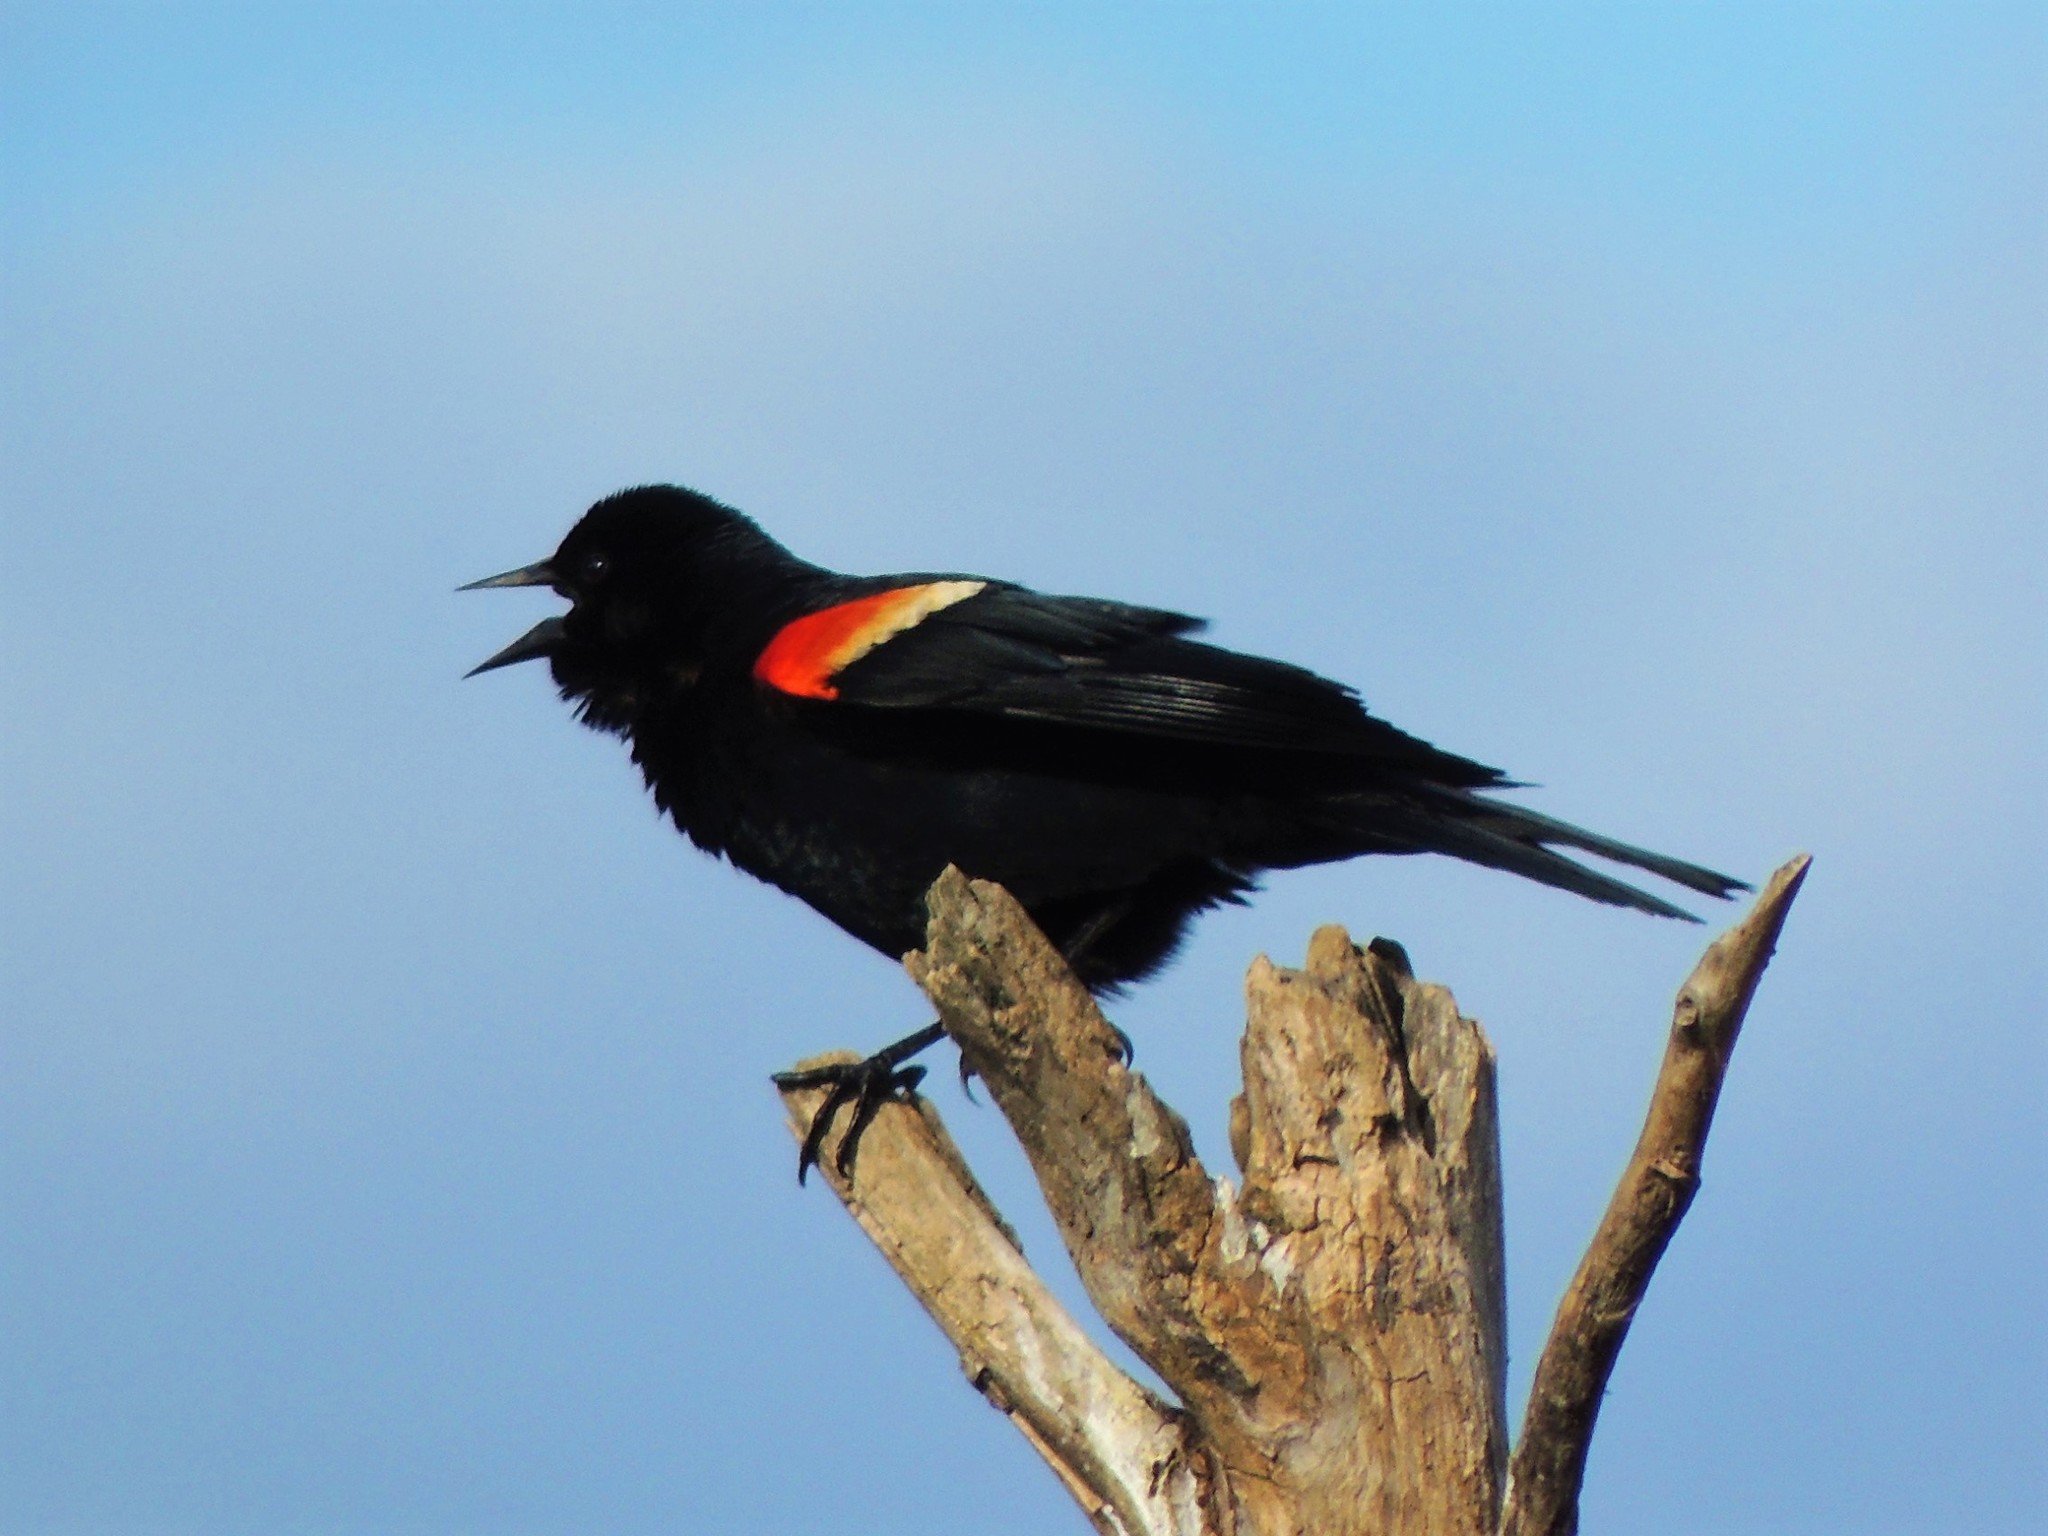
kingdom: Animalia
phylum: Chordata
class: Aves
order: Passeriformes
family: Icteridae
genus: Agelaius
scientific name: Agelaius phoeniceus
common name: Red-winged blackbird
